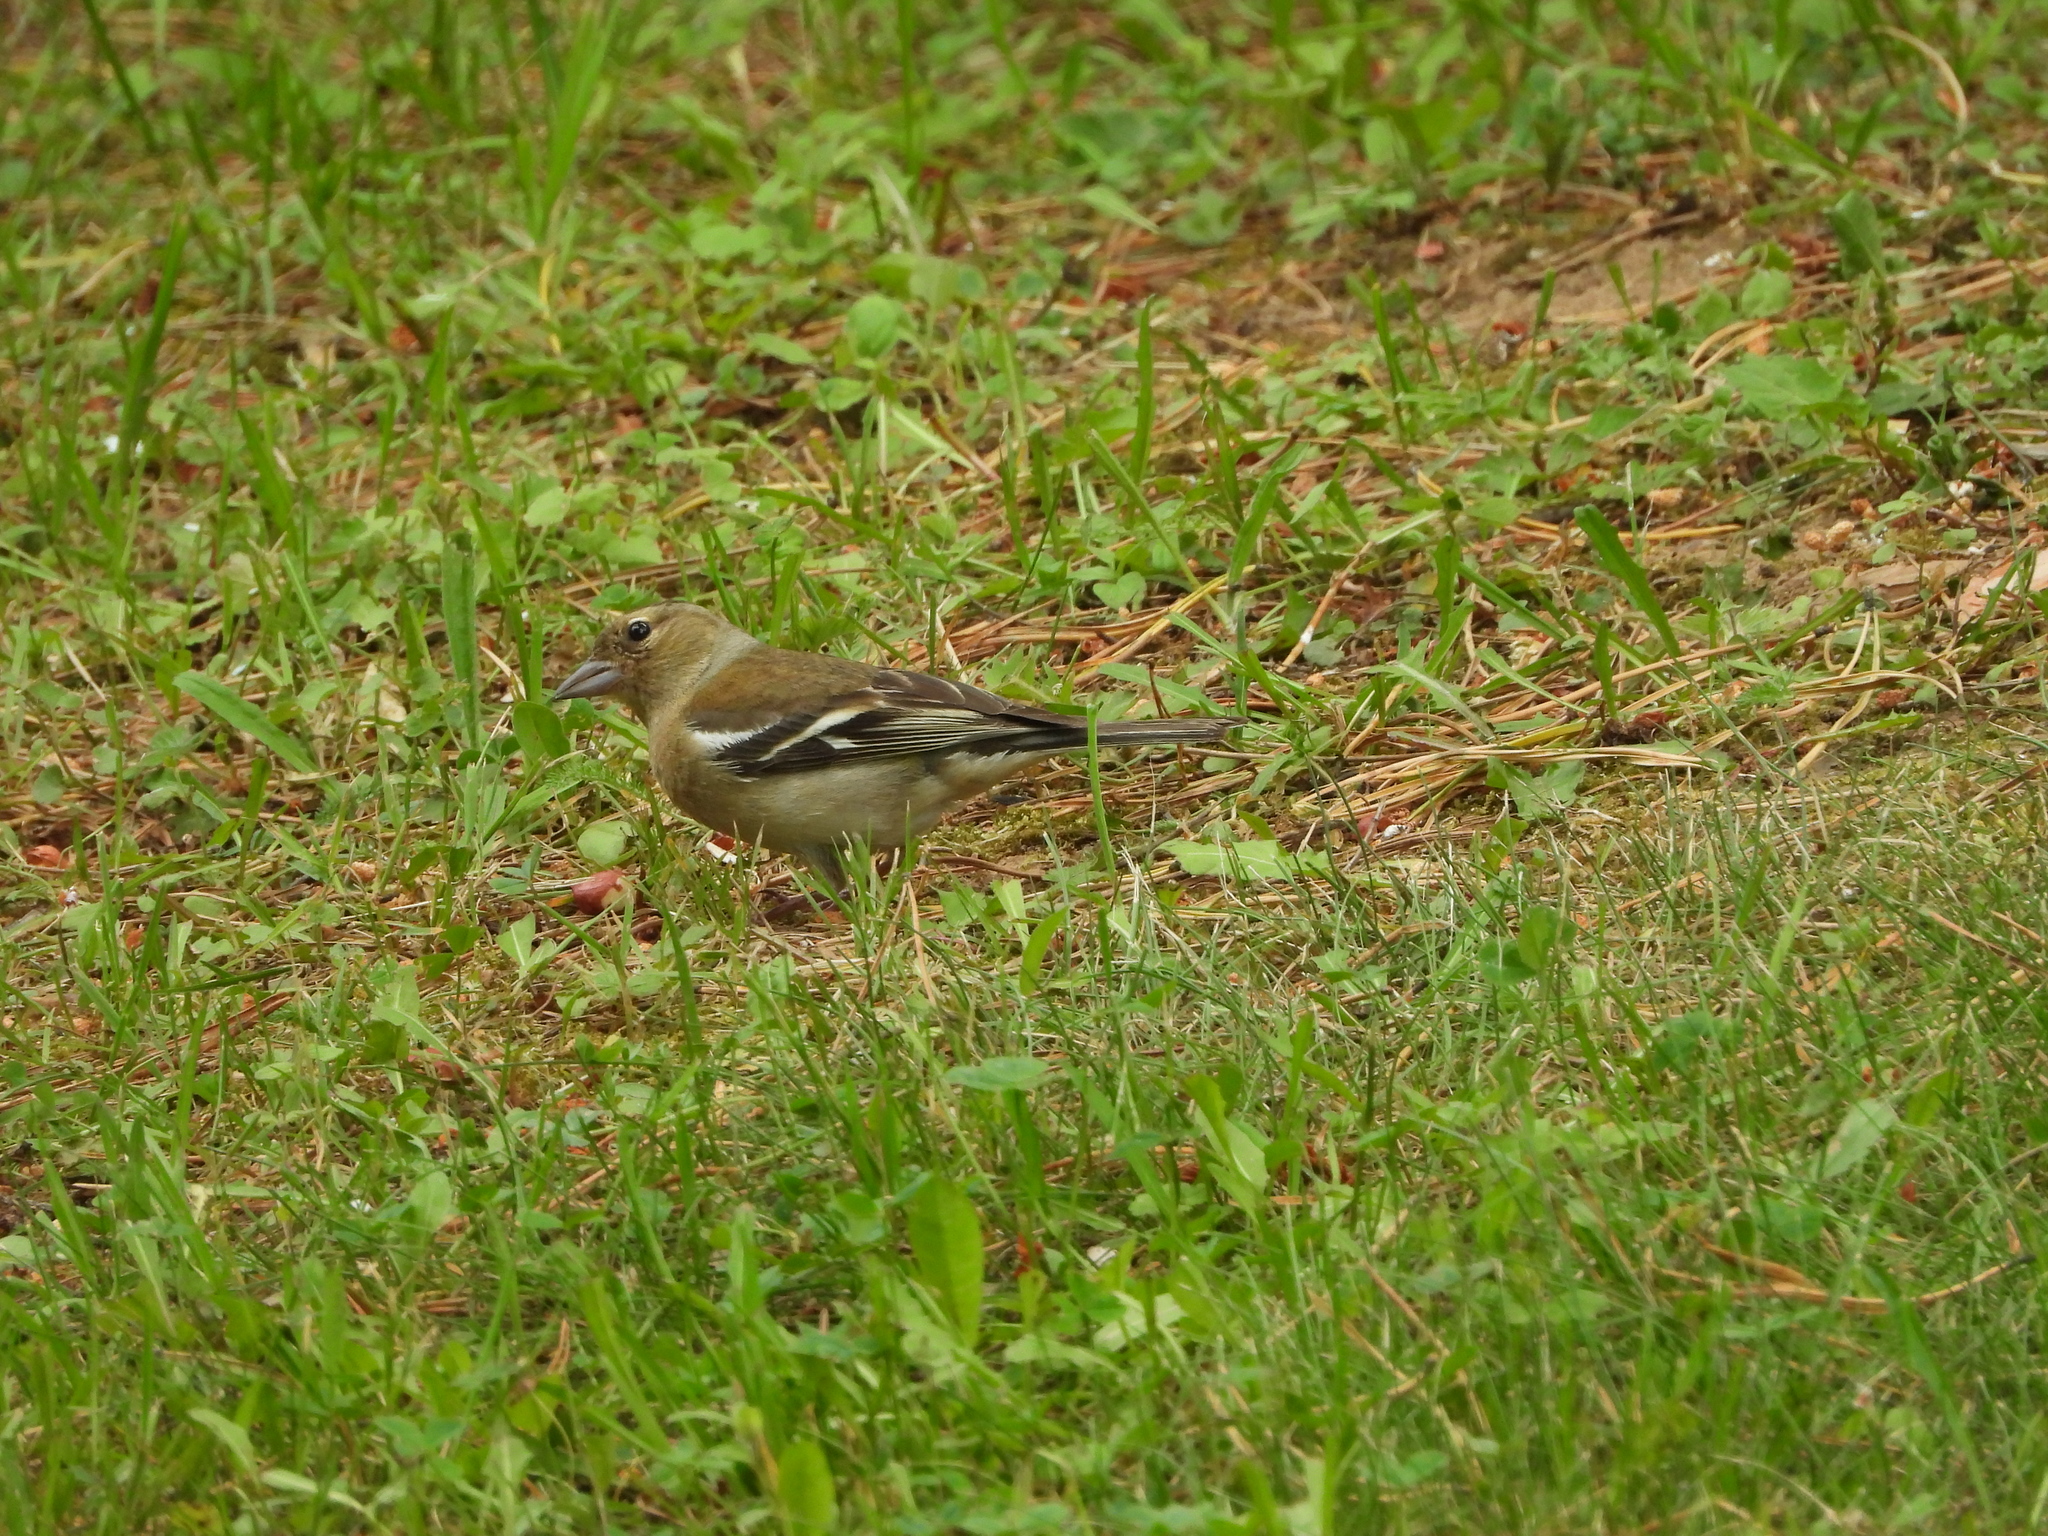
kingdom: Animalia
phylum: Chordata
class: Aves
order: Passeriformes
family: Fringillidae
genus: Fringilla
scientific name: Fringilla coelebs
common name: Common chaffinch
